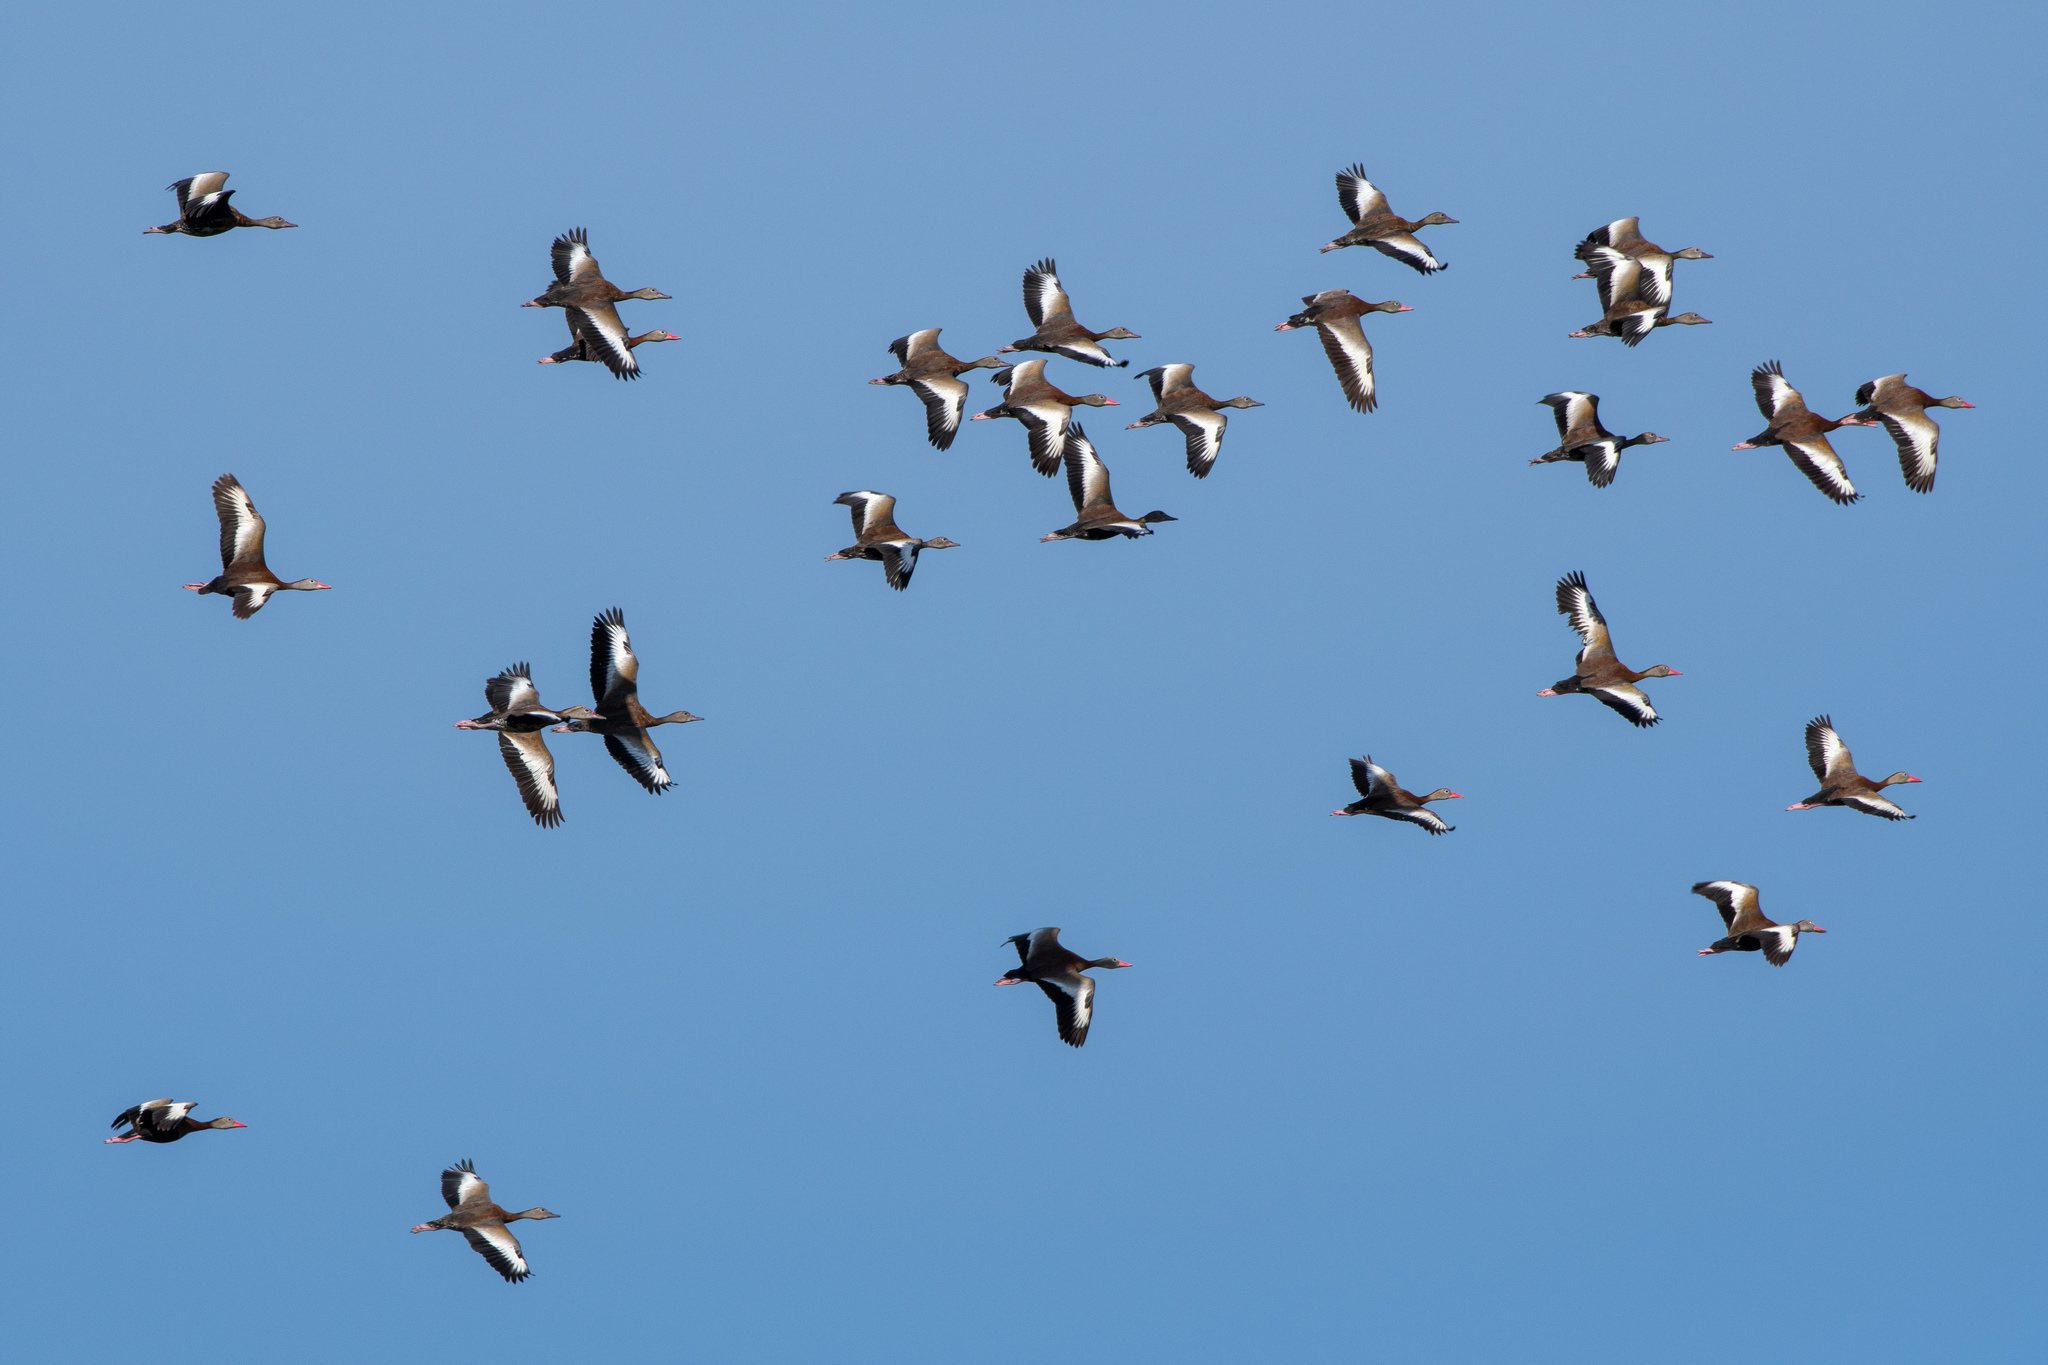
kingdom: Animalia
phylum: Chordata
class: Aves
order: Anseriformes
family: Anatidae
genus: Dendrocygna
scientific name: Dendrocygna autumnalis
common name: Black-bellied whistling duck
